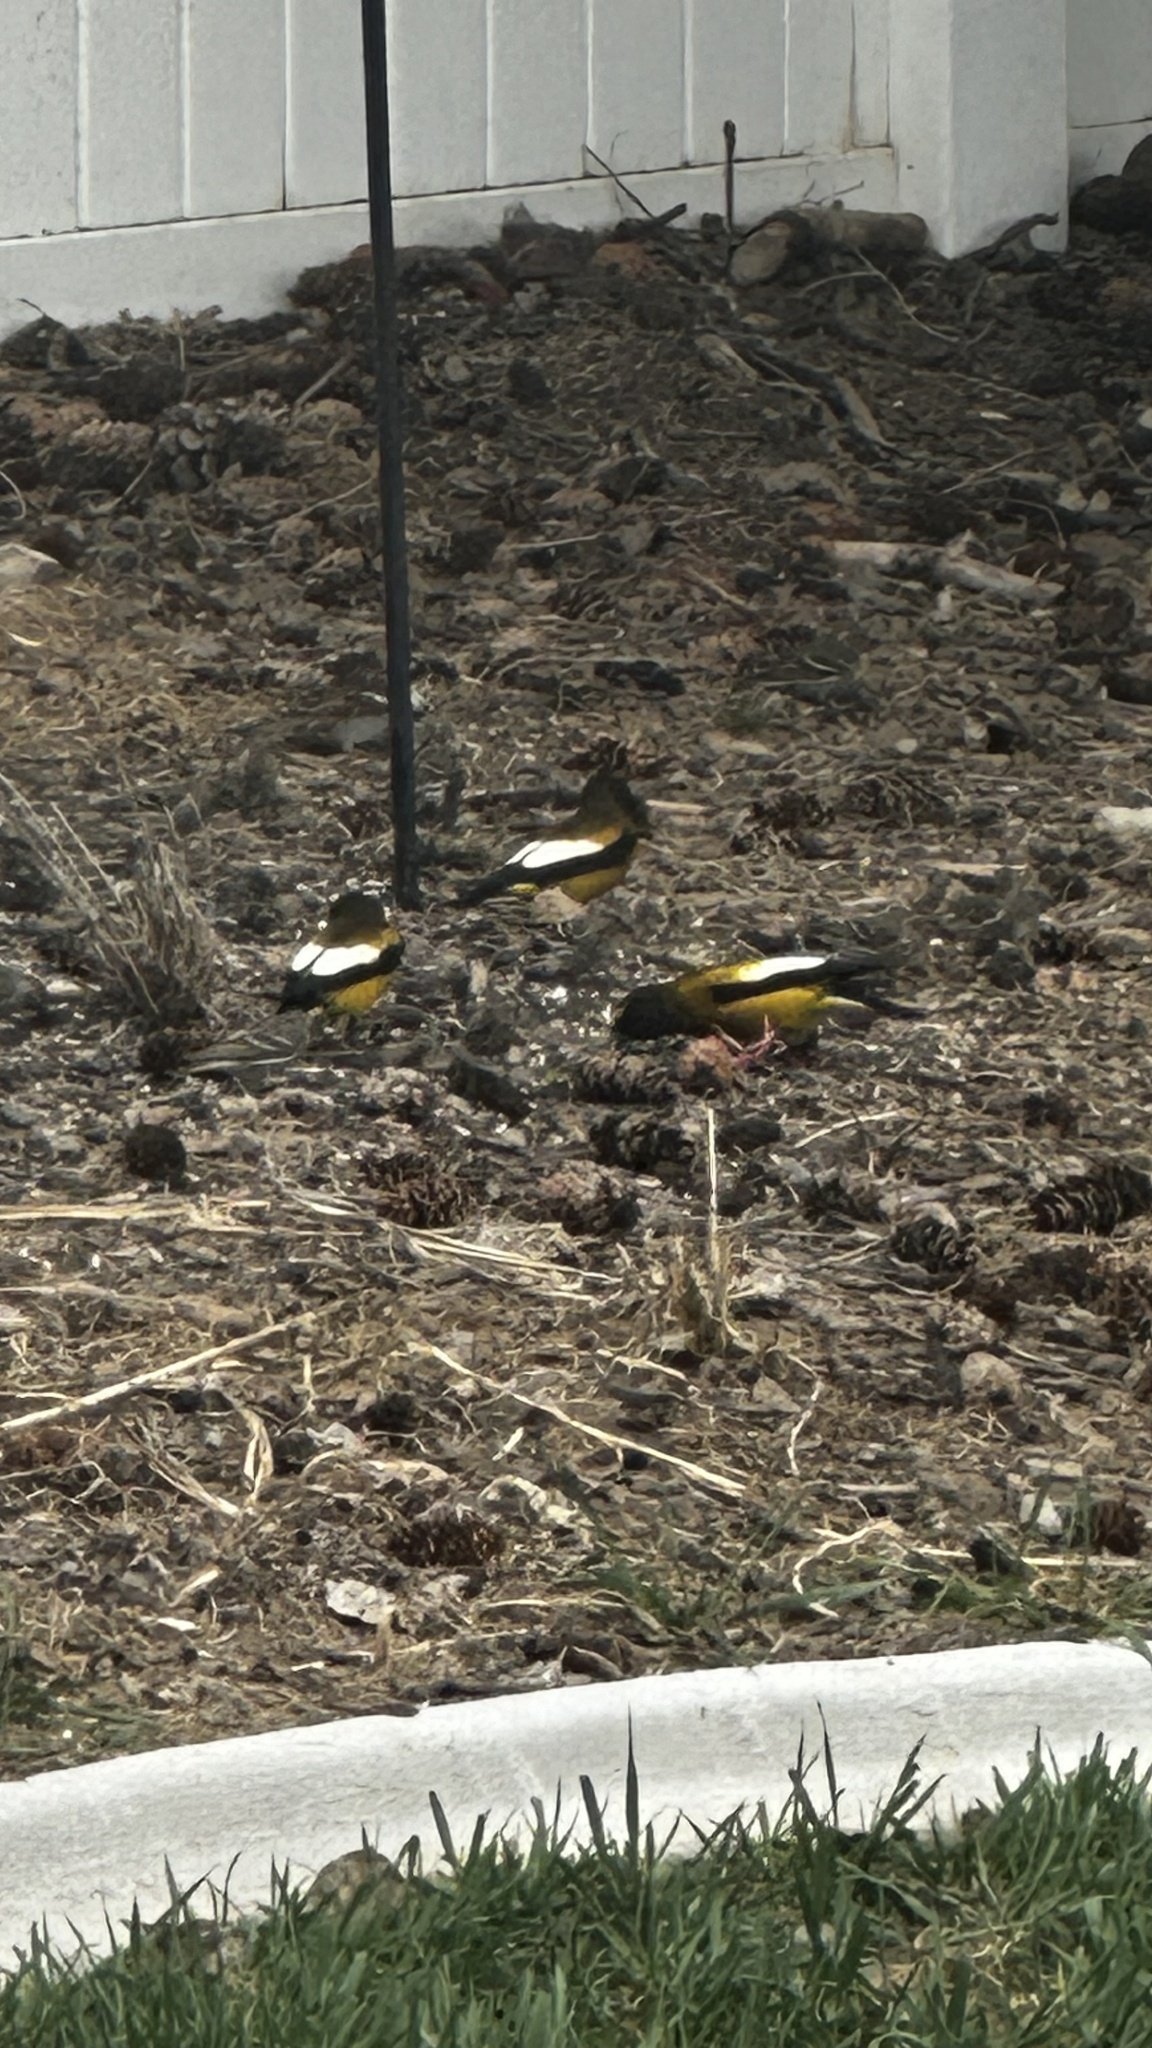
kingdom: Animalia
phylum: Chordata
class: Aves
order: Passeriformes
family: Fringillidae
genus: Hesperiphona
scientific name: Hesperiphona vespertina
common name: Evening grosbeak
